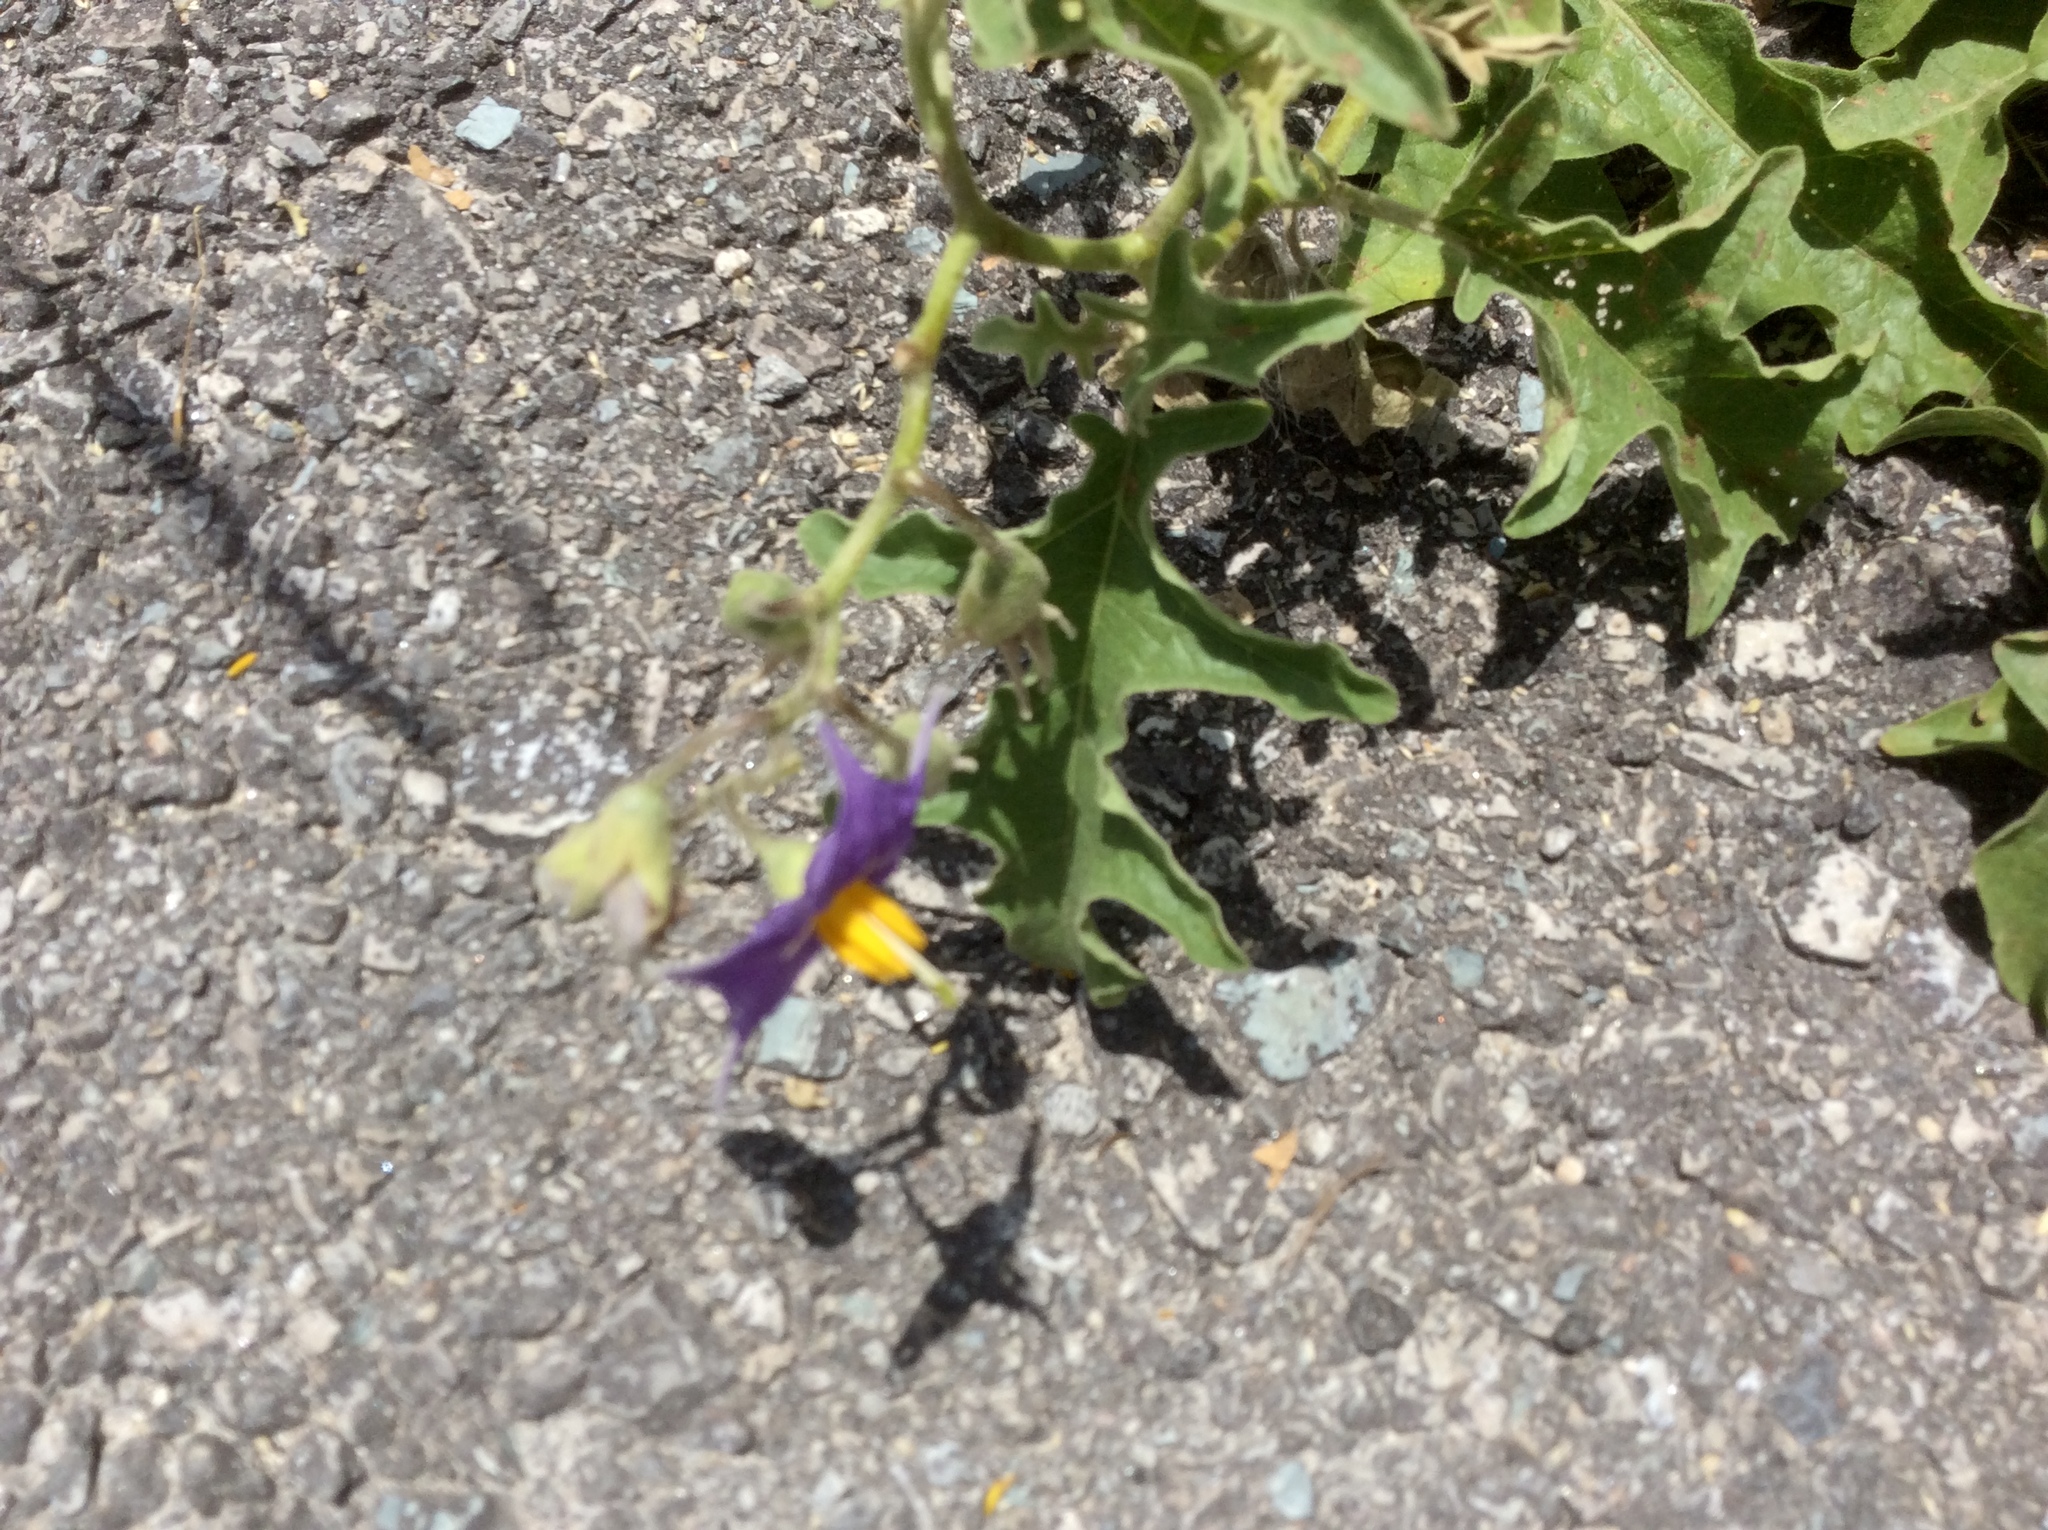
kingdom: Plantae
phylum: Tracheophyta
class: Magnoliopsida
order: Solanales
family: Solanaceae
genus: Solanum
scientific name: Solanum dimidiatum
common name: Carolina horse-nettle
